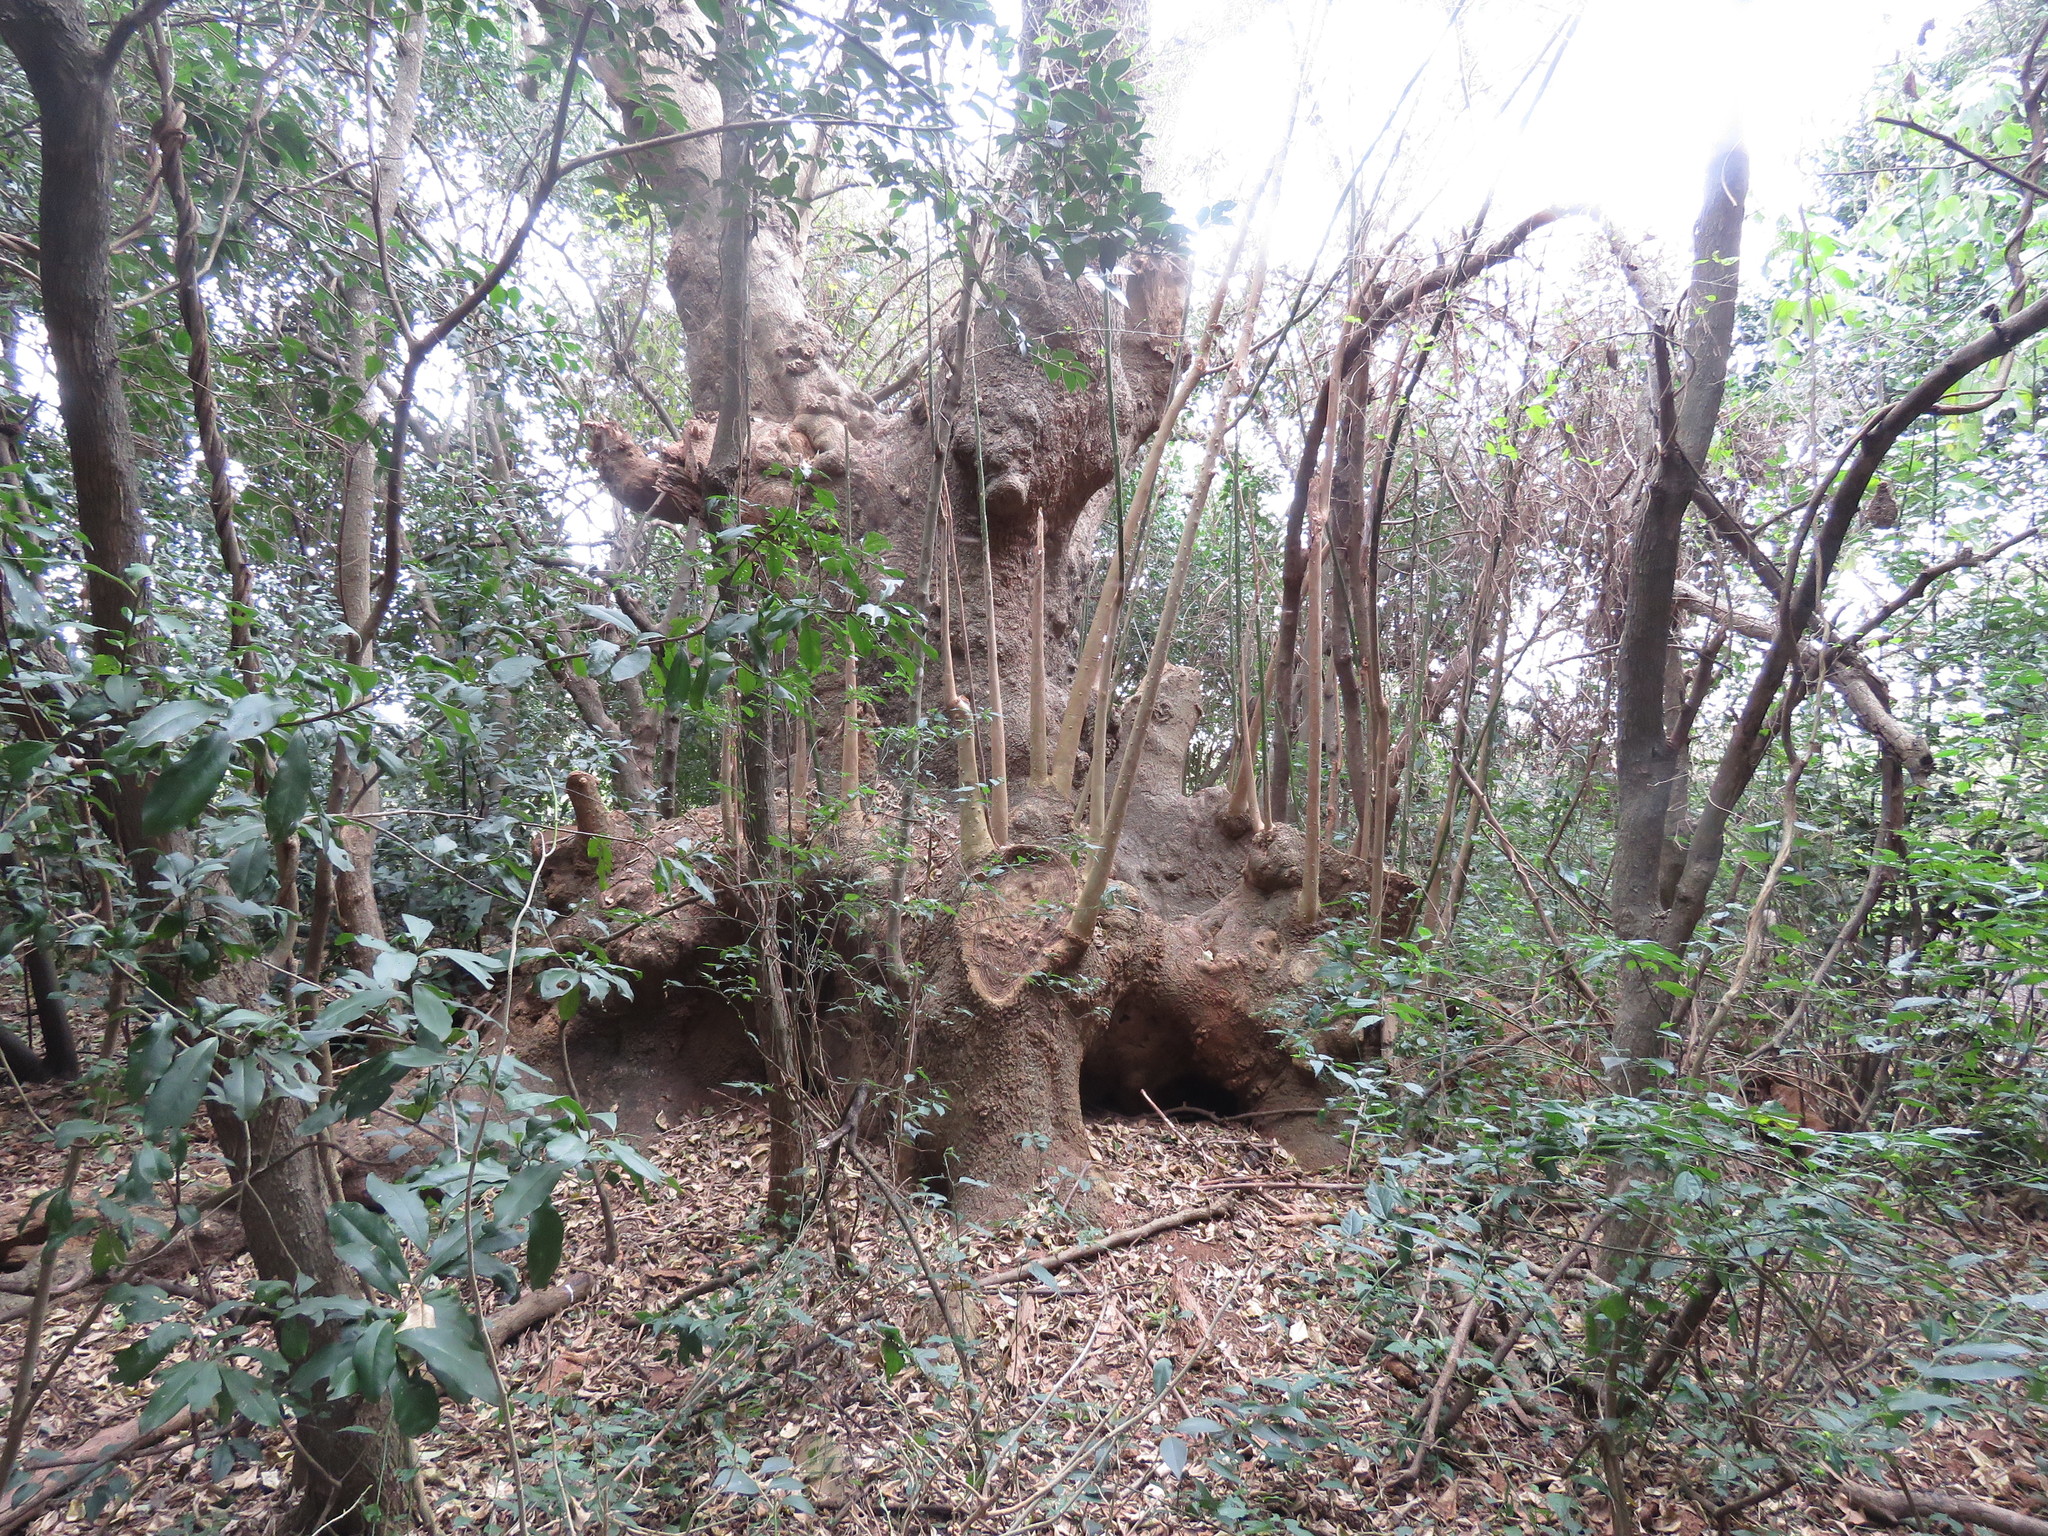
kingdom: Plantae
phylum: Tracheophyta
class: Magnoliopsida
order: Caryophyllales
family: Phytolaccaceae
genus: Phytolacca
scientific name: Phytolacca dioica
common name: Pokeweed
